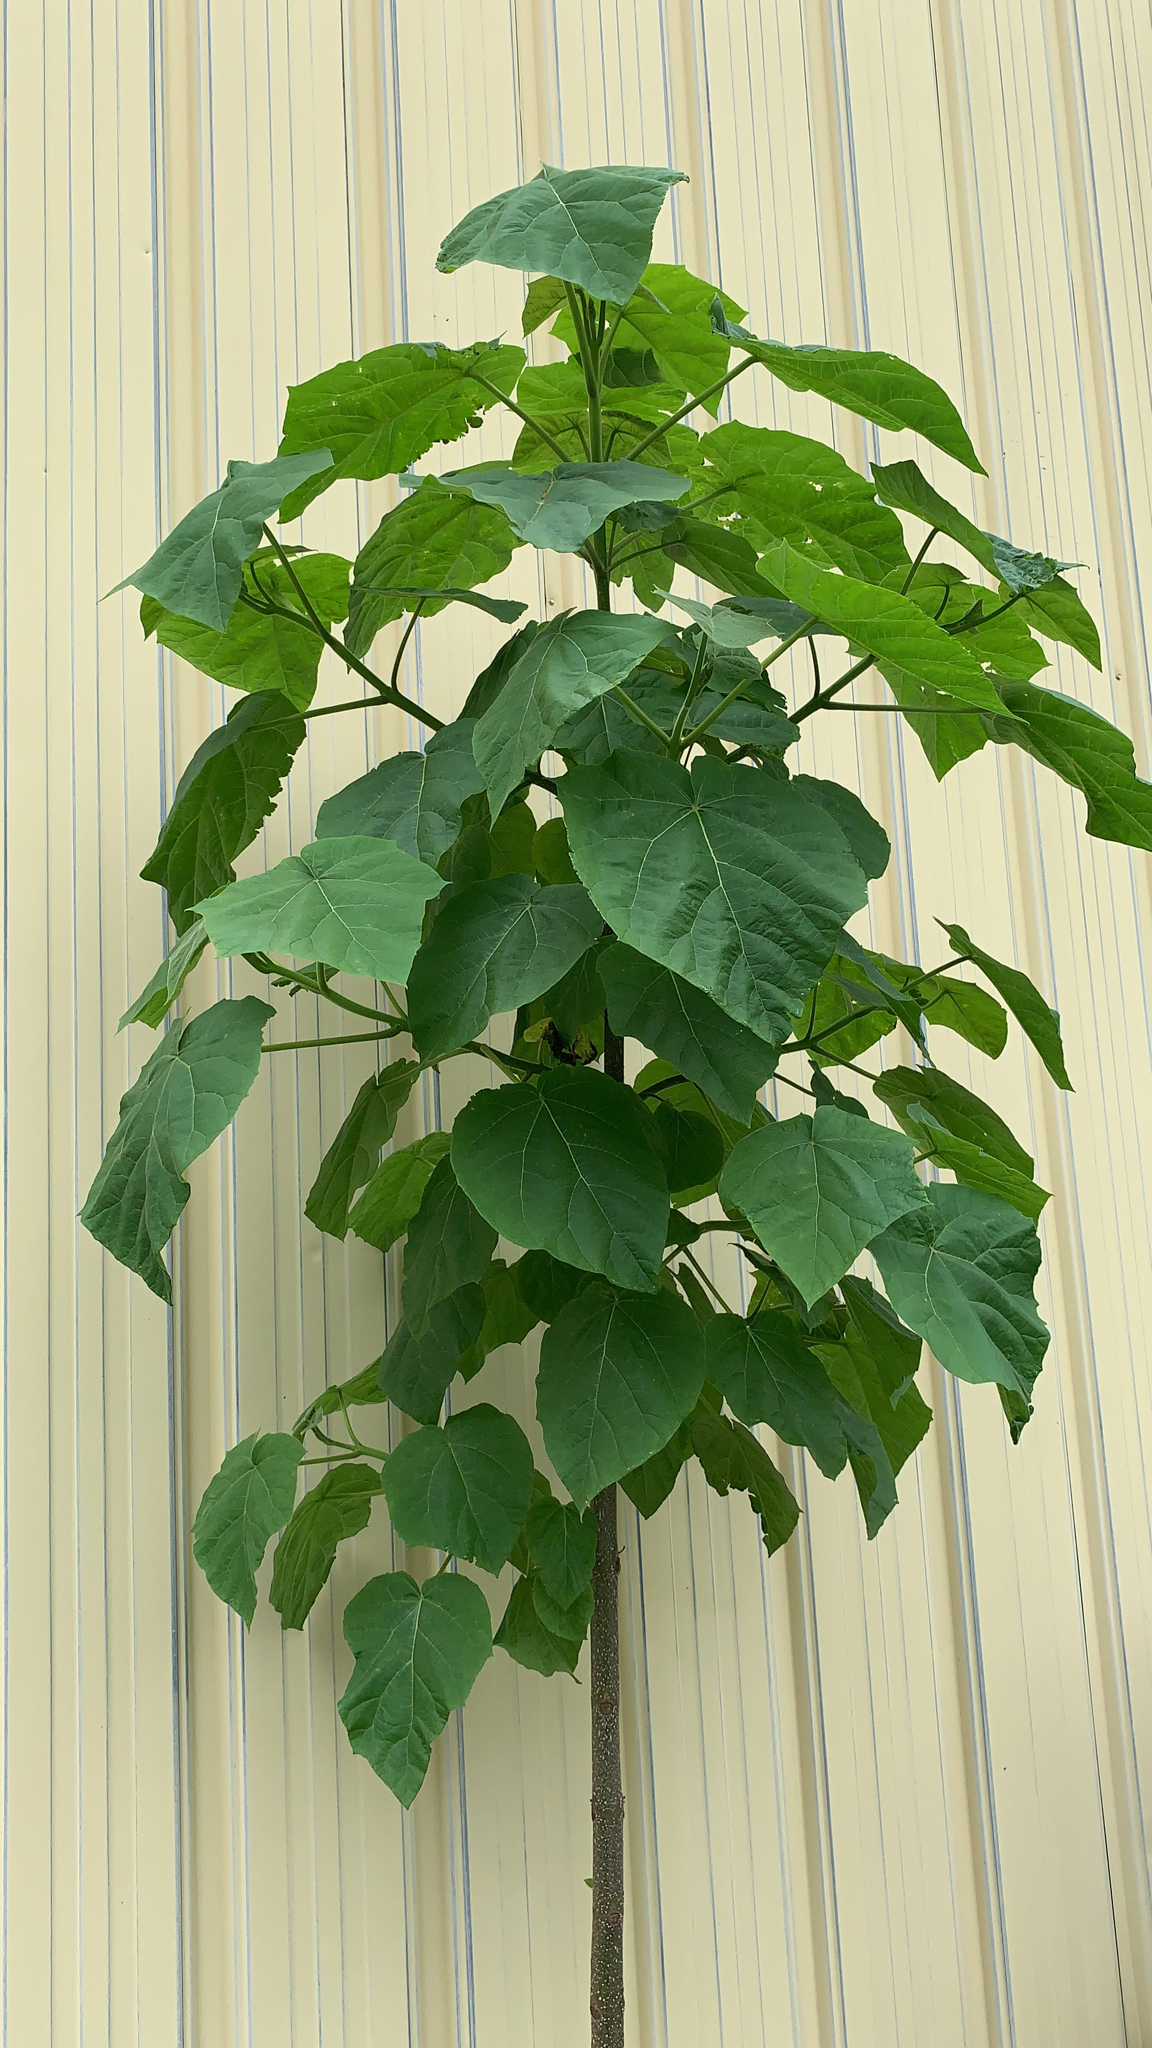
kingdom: Plantae
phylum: Tracheophyta
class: Magnoliopsida
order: Lamiales
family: Paulowniaceae
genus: Paulownia
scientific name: Paulownia tomentosa
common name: Foxglove-tree
